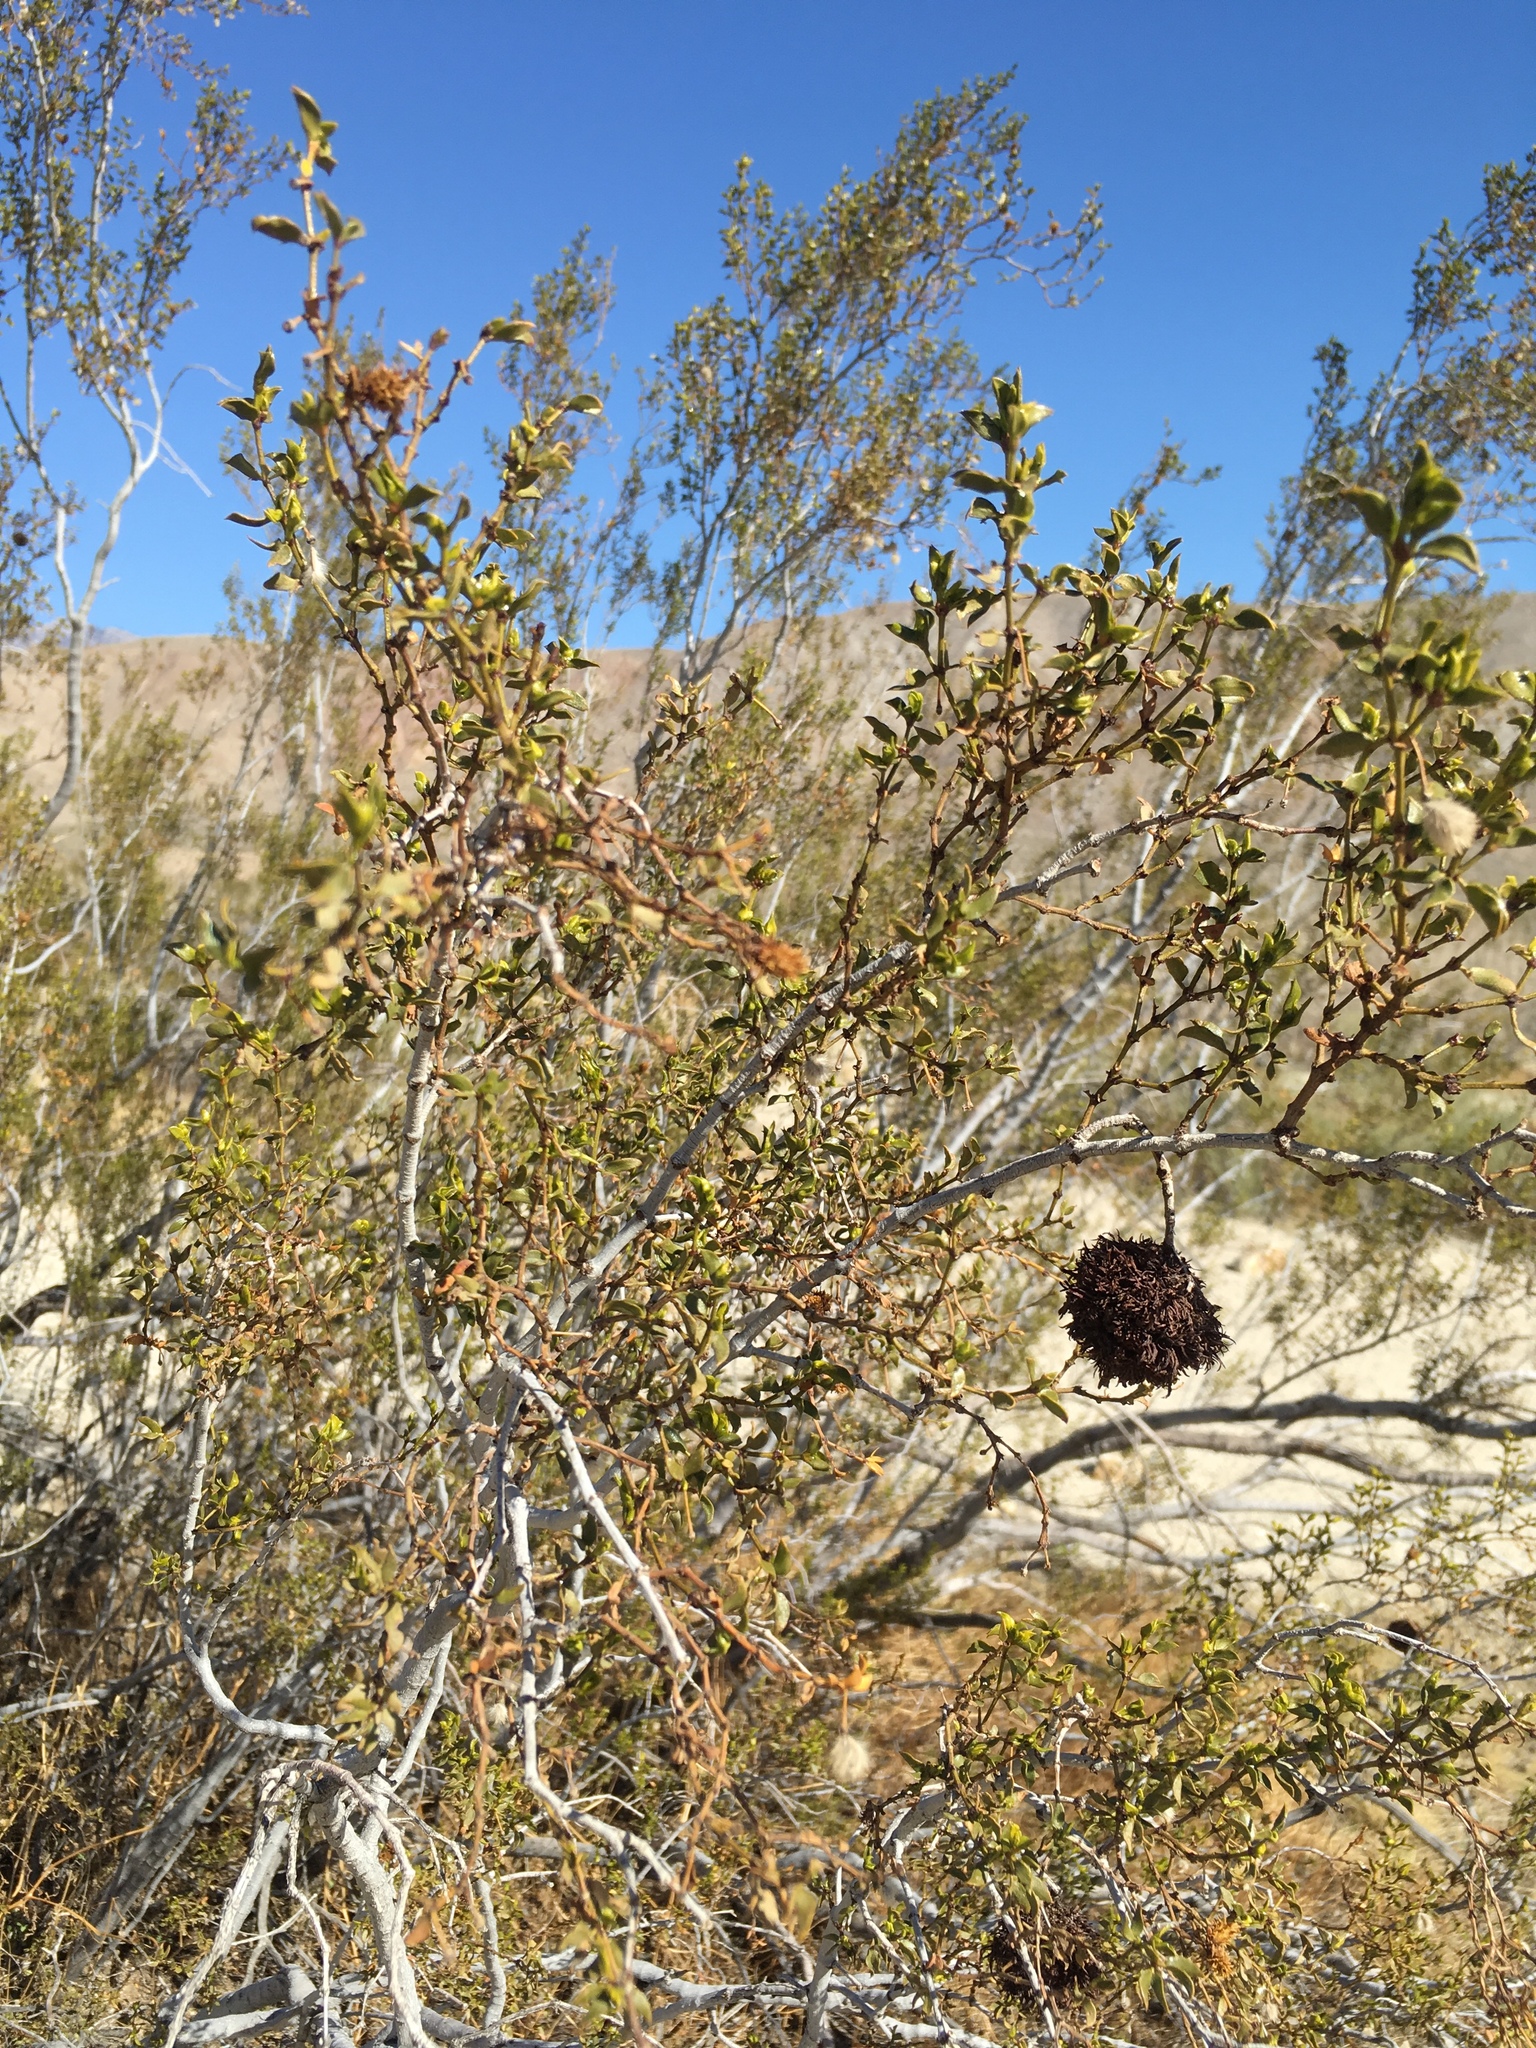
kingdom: Animalia
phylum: Arthropoda
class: Insecta
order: Diptera
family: Cecidomyiidae
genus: Asphondylia
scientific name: Asphondylia auripila
